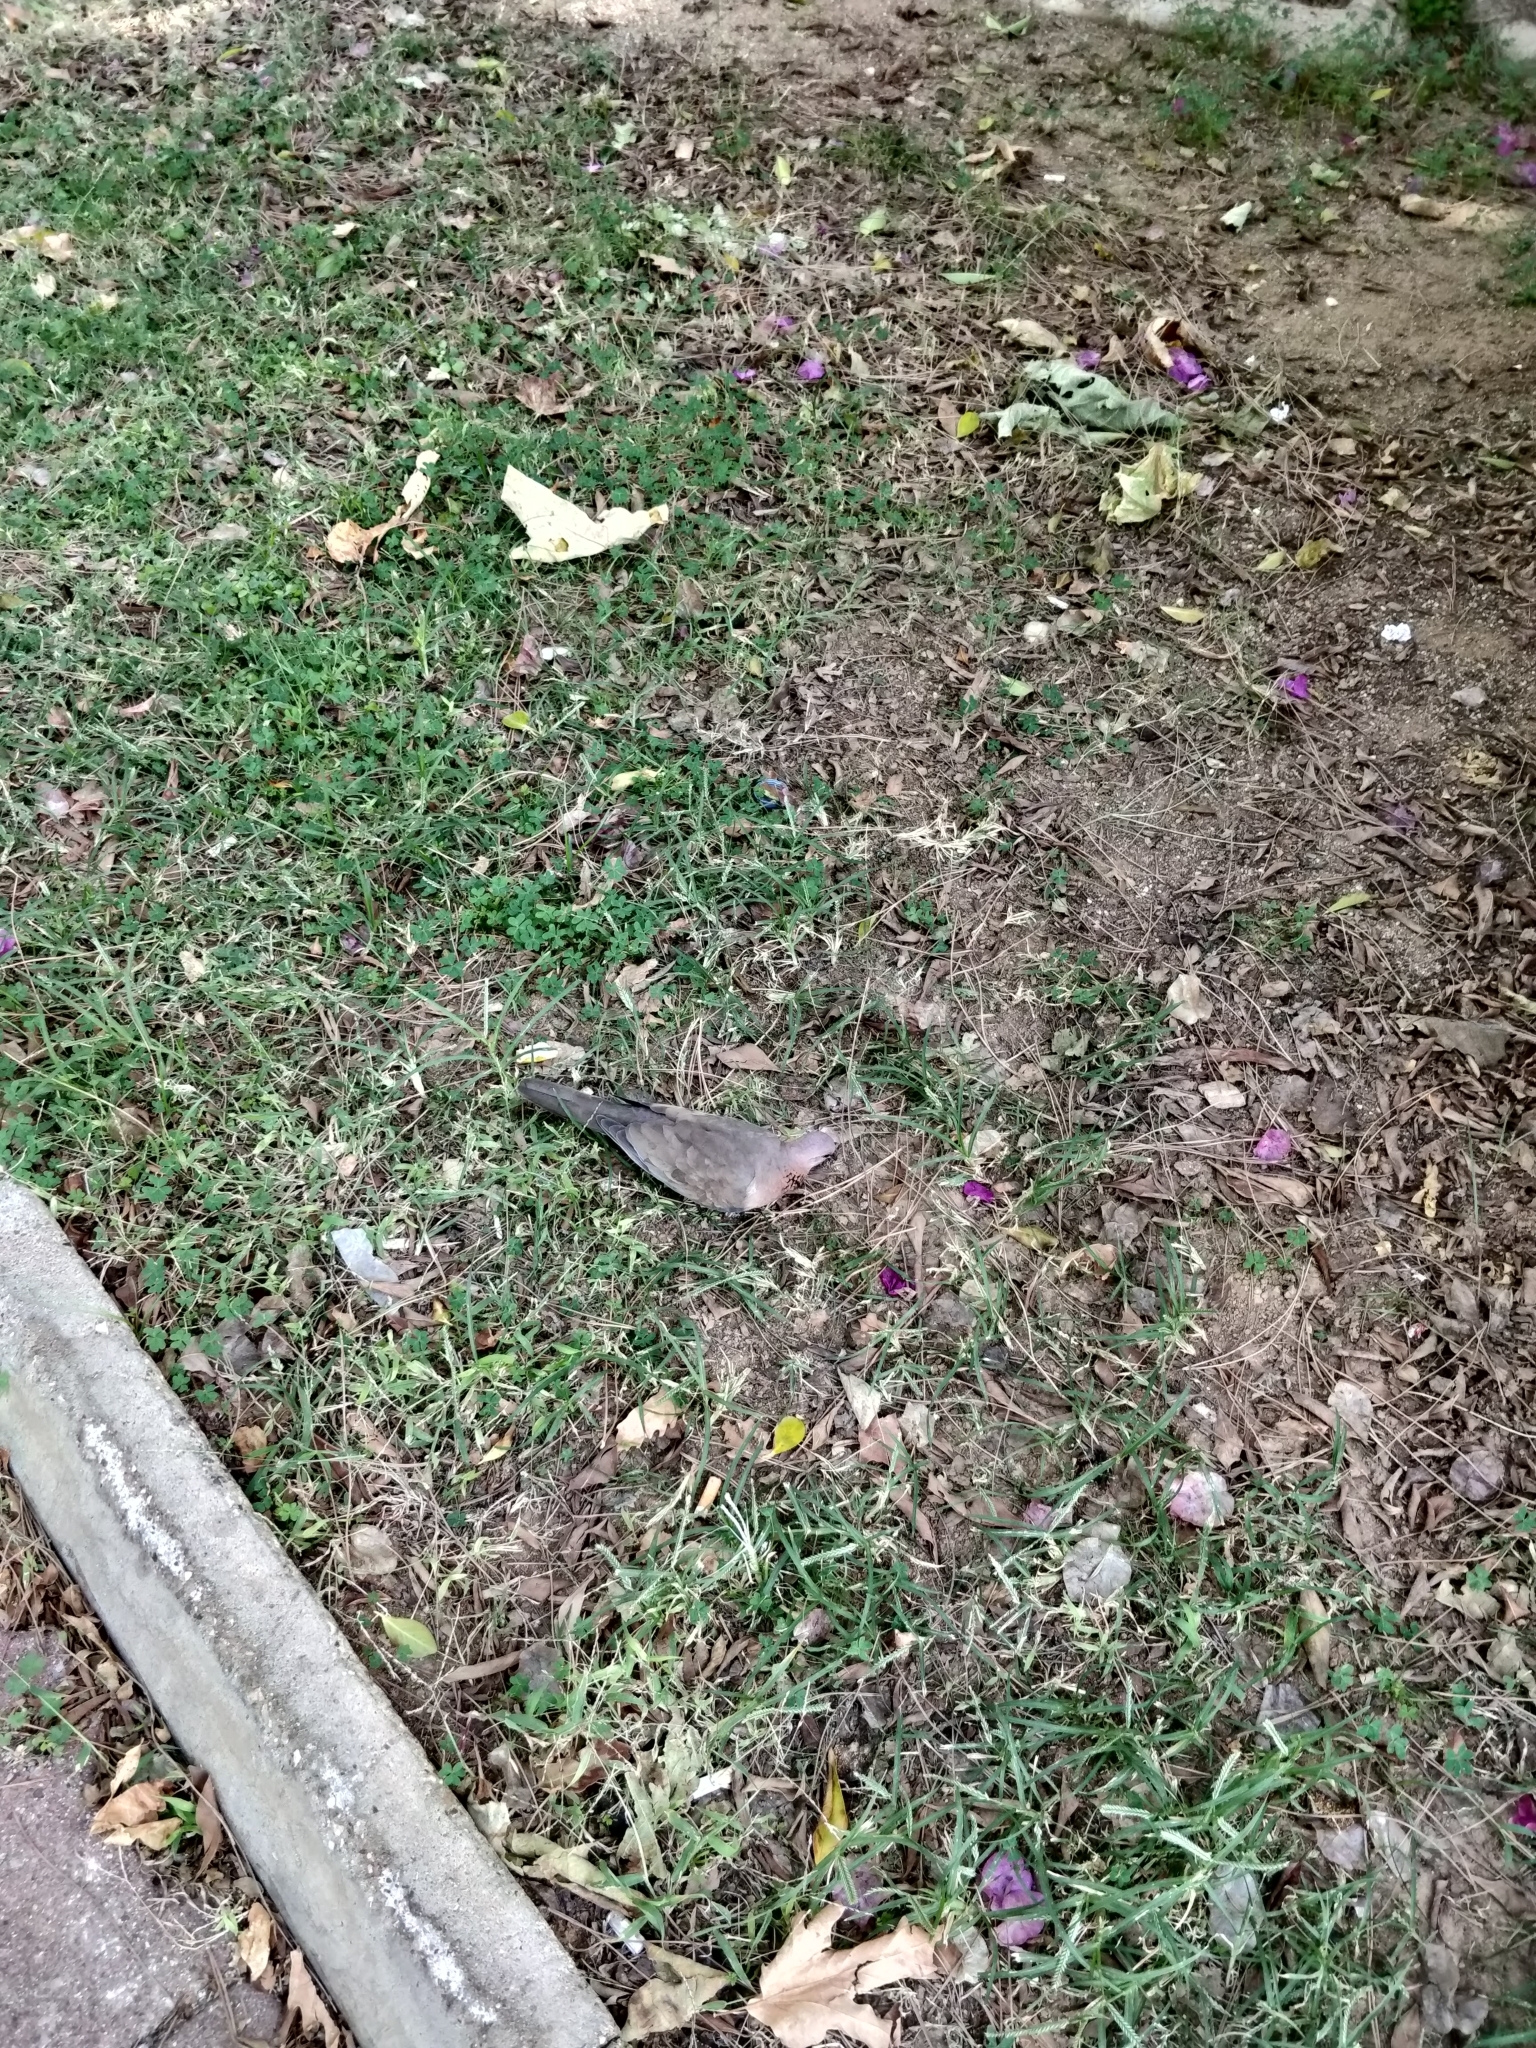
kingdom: Animalia
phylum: Chordata
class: Aves
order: Columbiformes
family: Columbidae
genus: Spilopelia
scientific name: Spilopelia senegalensis
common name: Laughing dove
